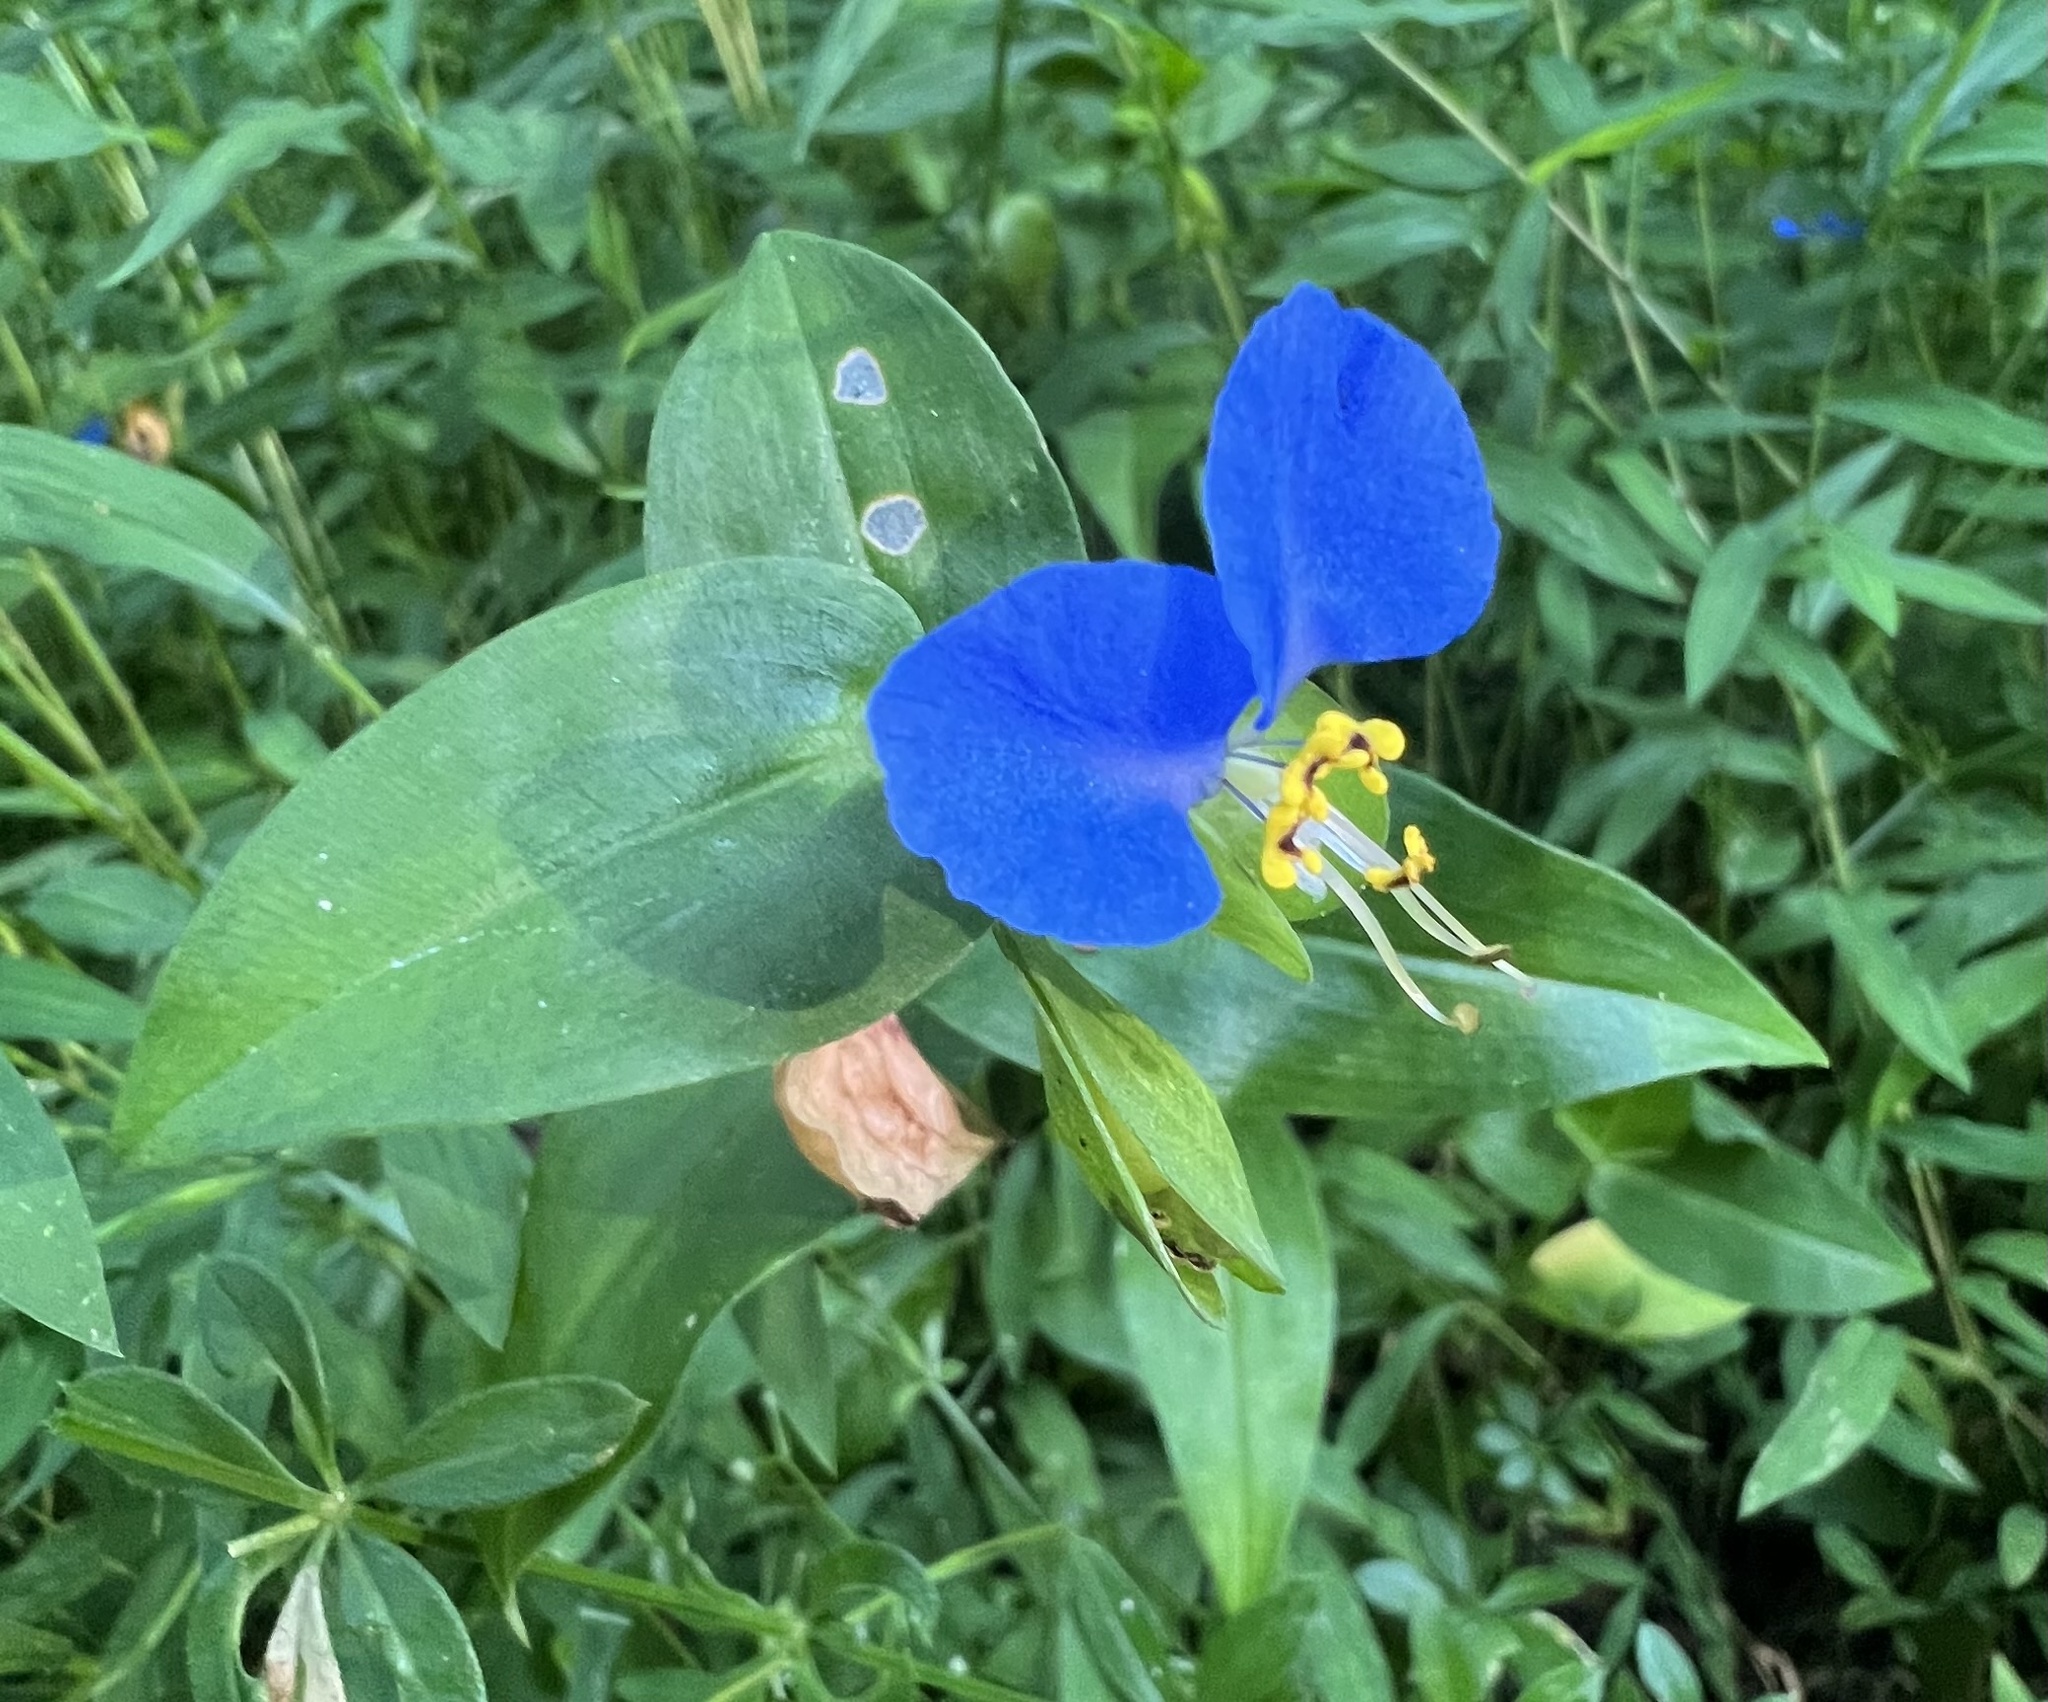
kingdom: Plantae
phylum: Tracheophyta
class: Liliopsida
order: Commelinales
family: Commelinaceae
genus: Commelina
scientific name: Commelina communis
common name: Asiatic dayflower
